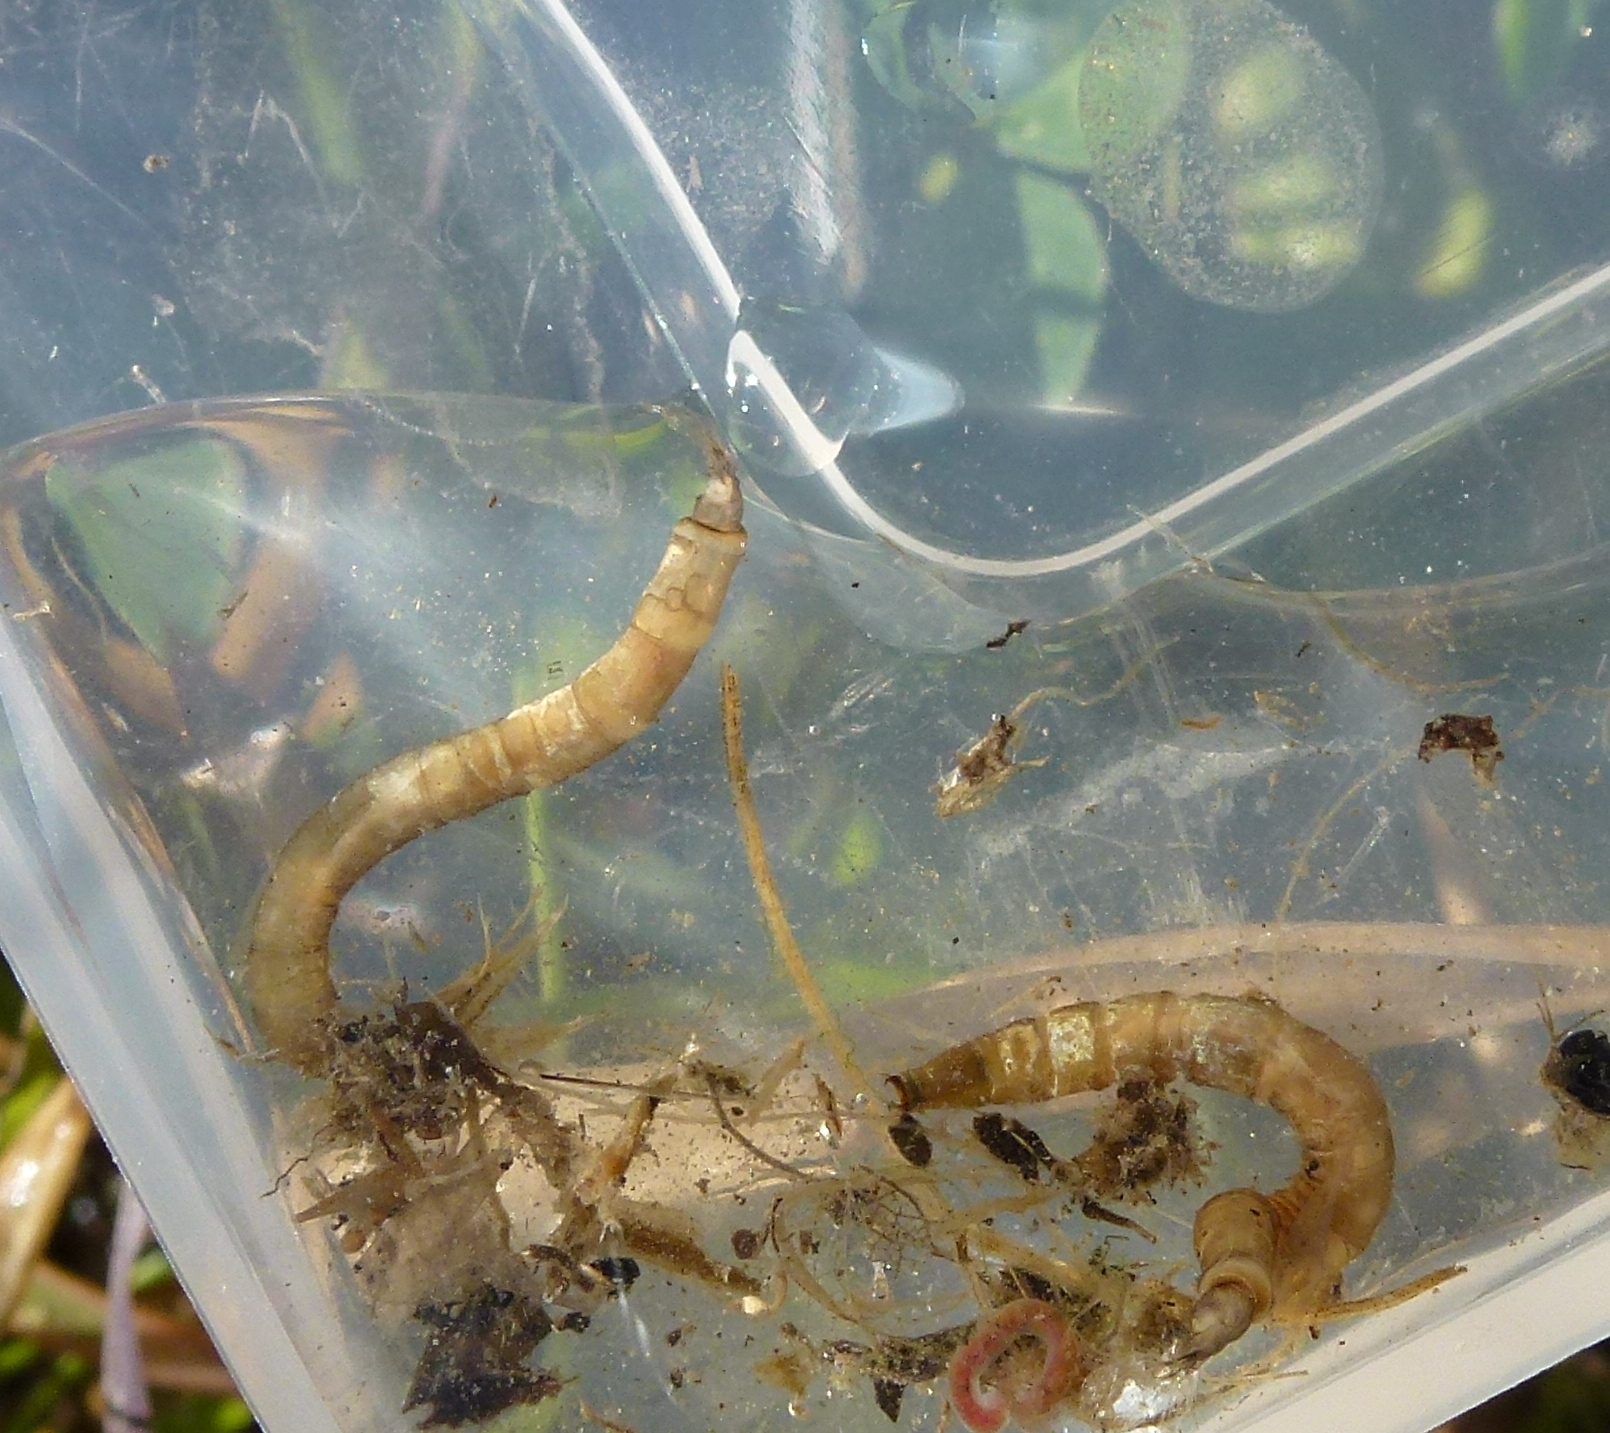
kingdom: Animalia
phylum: Arthropoda
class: Insecta
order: Diptera
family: Limoniidae
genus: Paralimnophila
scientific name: Paralimnophila skusei
